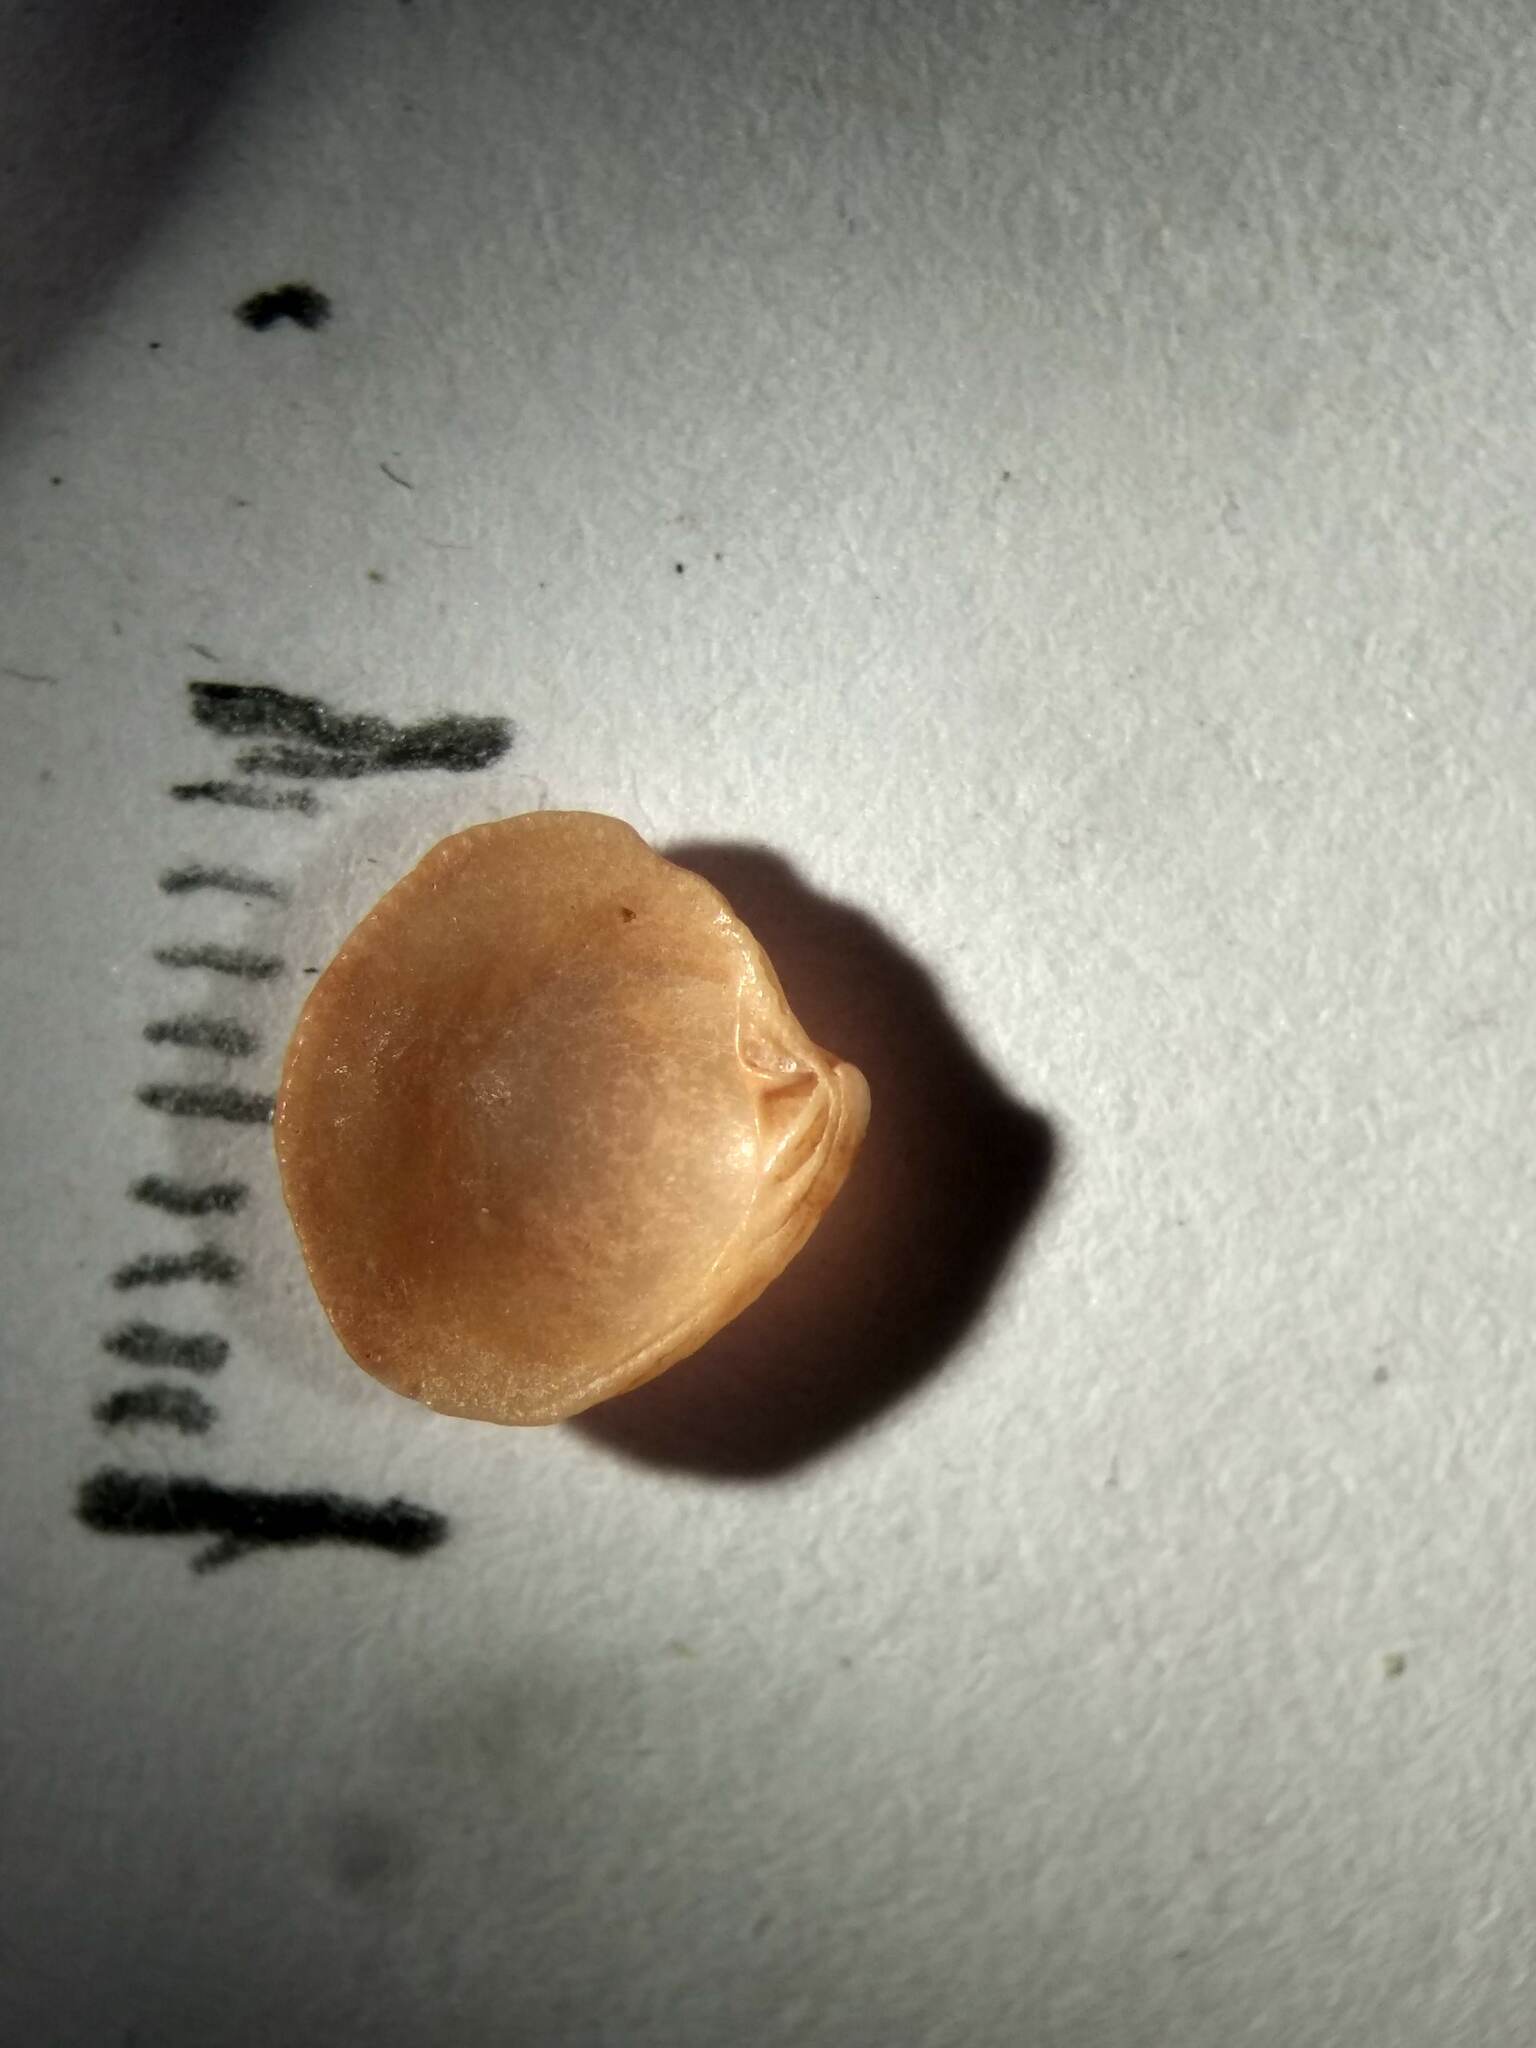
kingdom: Animalia
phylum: Mollusca
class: Bivalvia
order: Venerida
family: Veneridae
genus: Chionopsis
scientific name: Chionopsis intapurpurea
